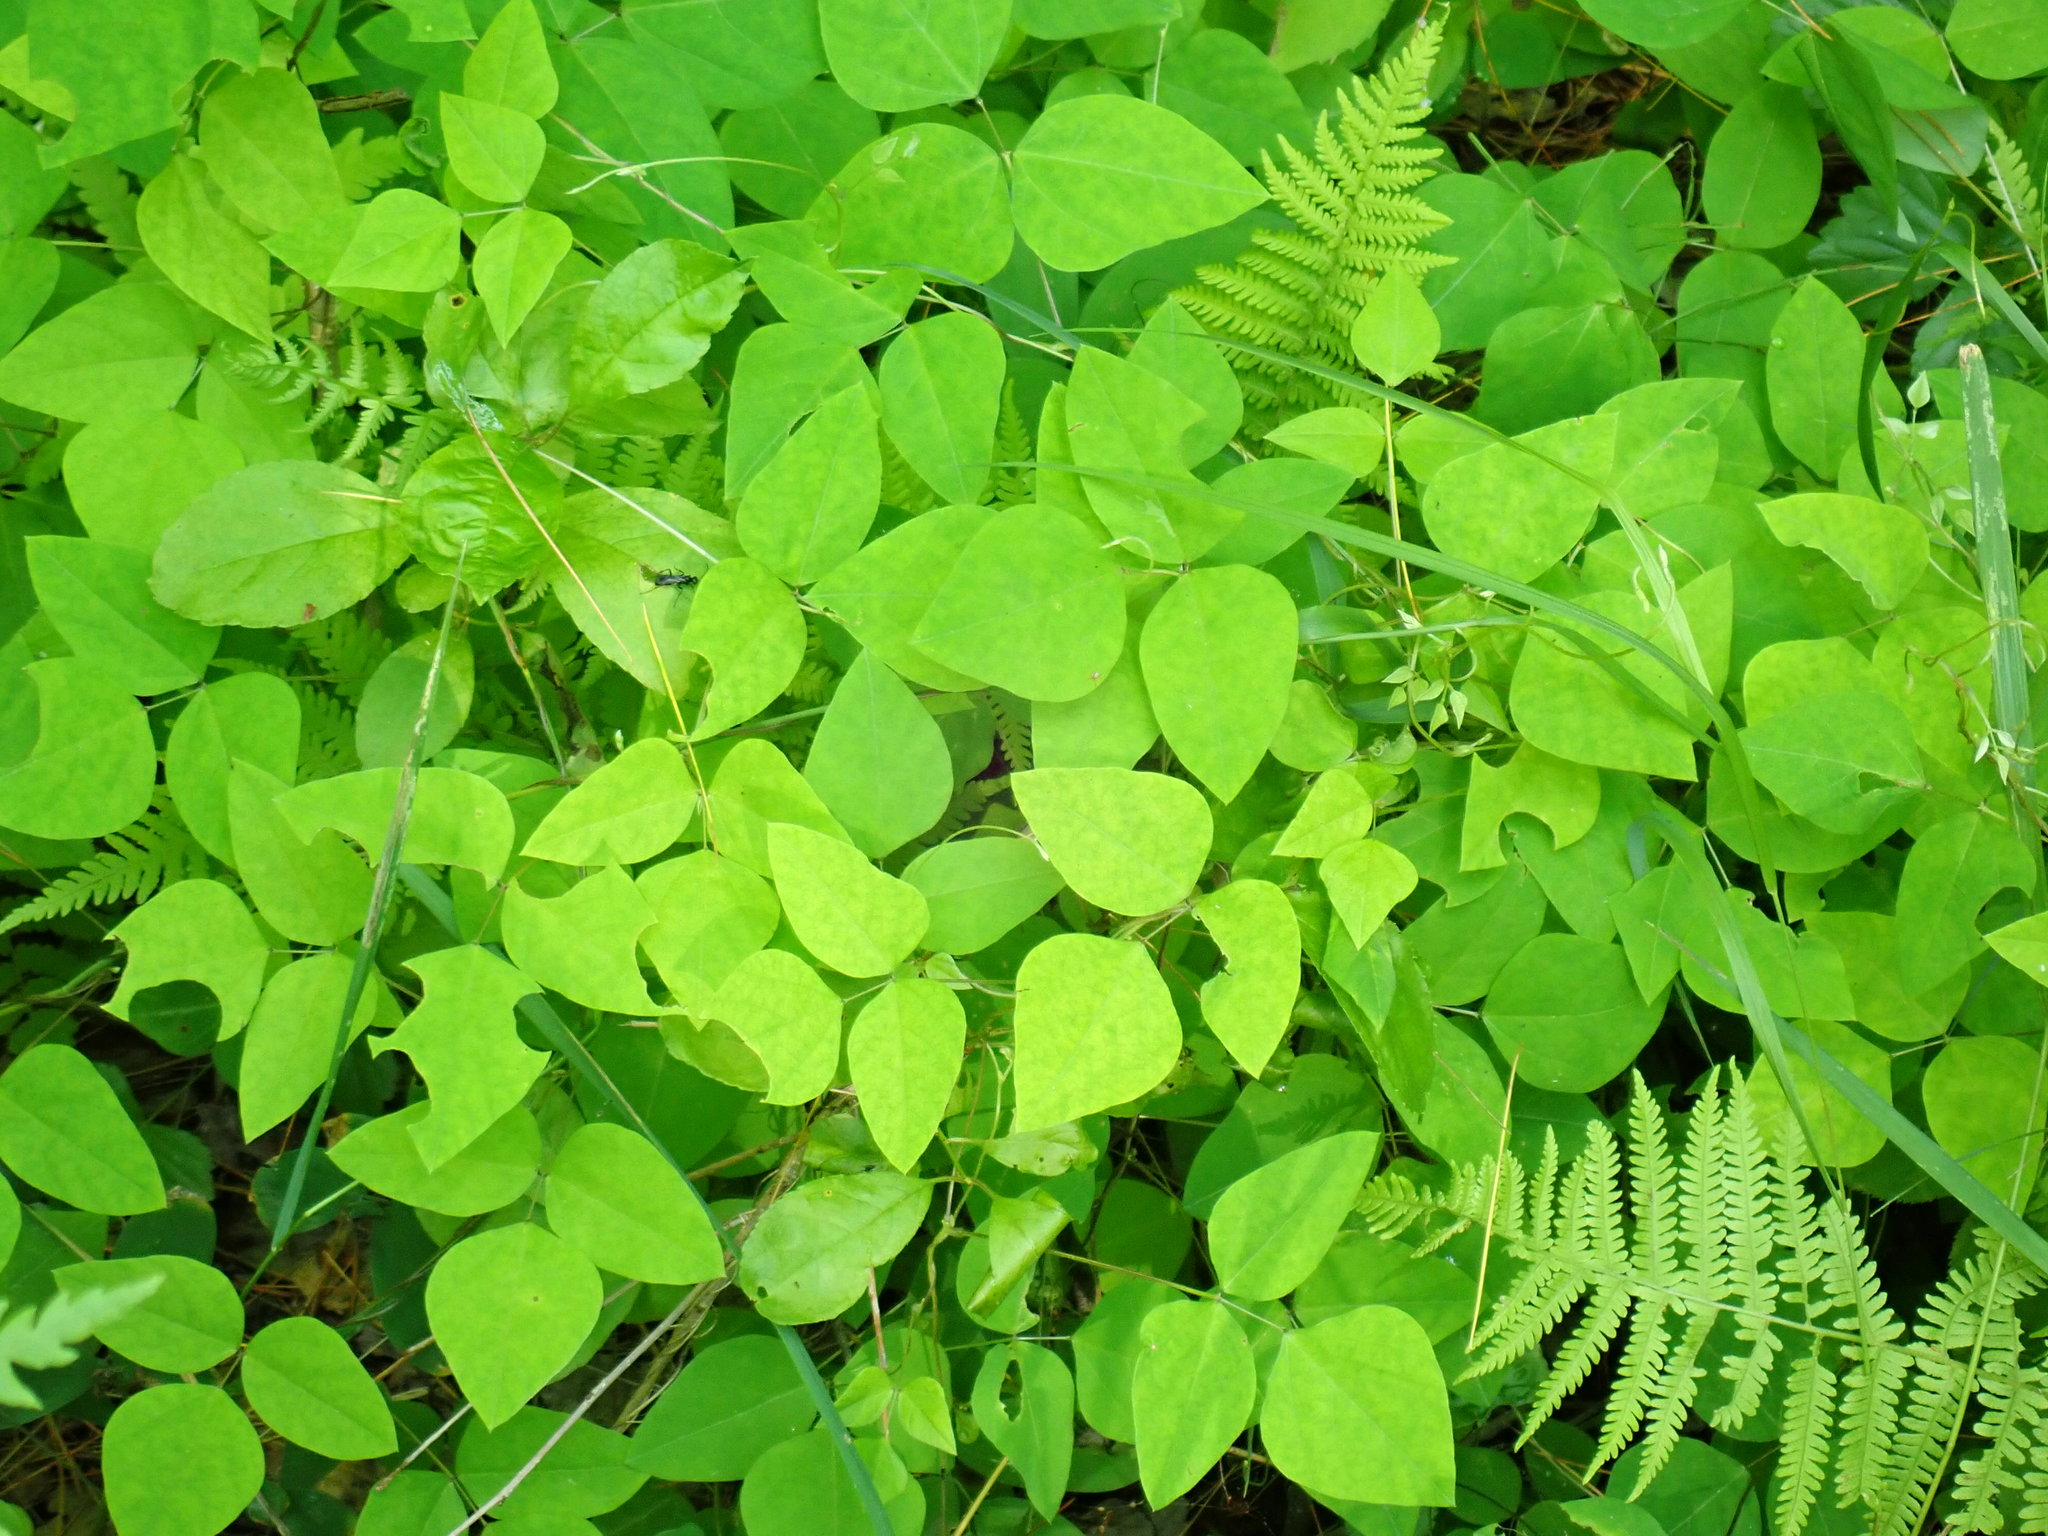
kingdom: Plantae
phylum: Tracheophyta
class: Magnoliopsida
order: Fabales
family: Fabaceae
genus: Amphicarpaea
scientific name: Amphicarpaea bracteata
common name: American hog peanut
